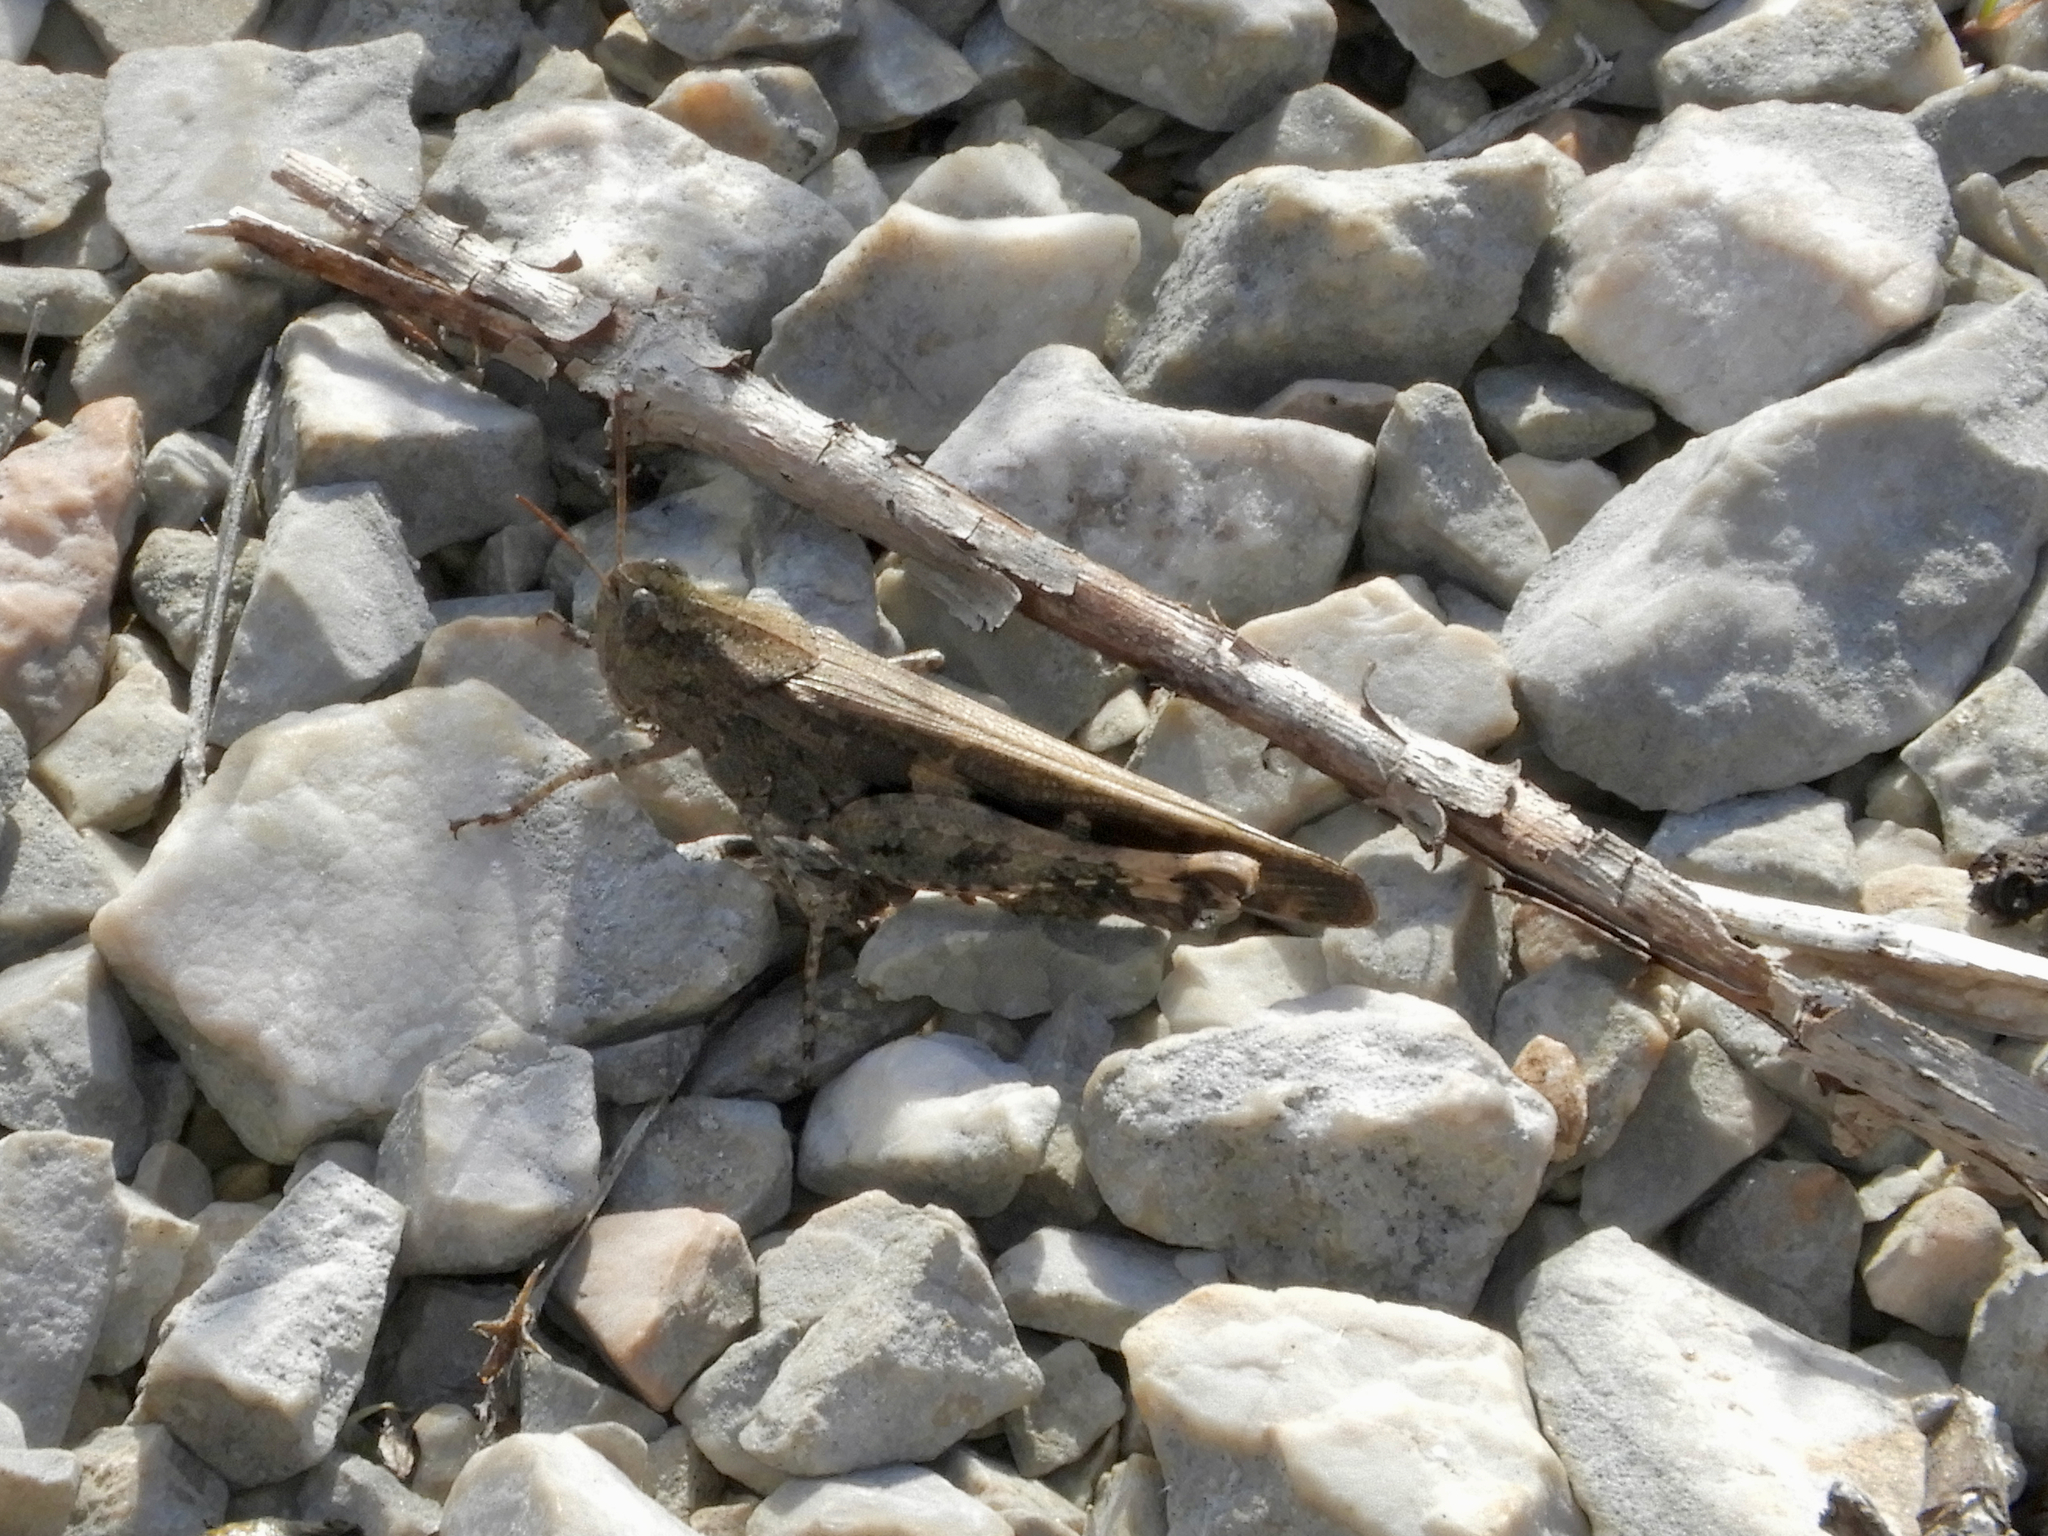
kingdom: Animalia
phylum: Arthropoda
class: Insecta
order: Orthoptera
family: Acrididae
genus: Aiolopus
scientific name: Aiolopus strepens
